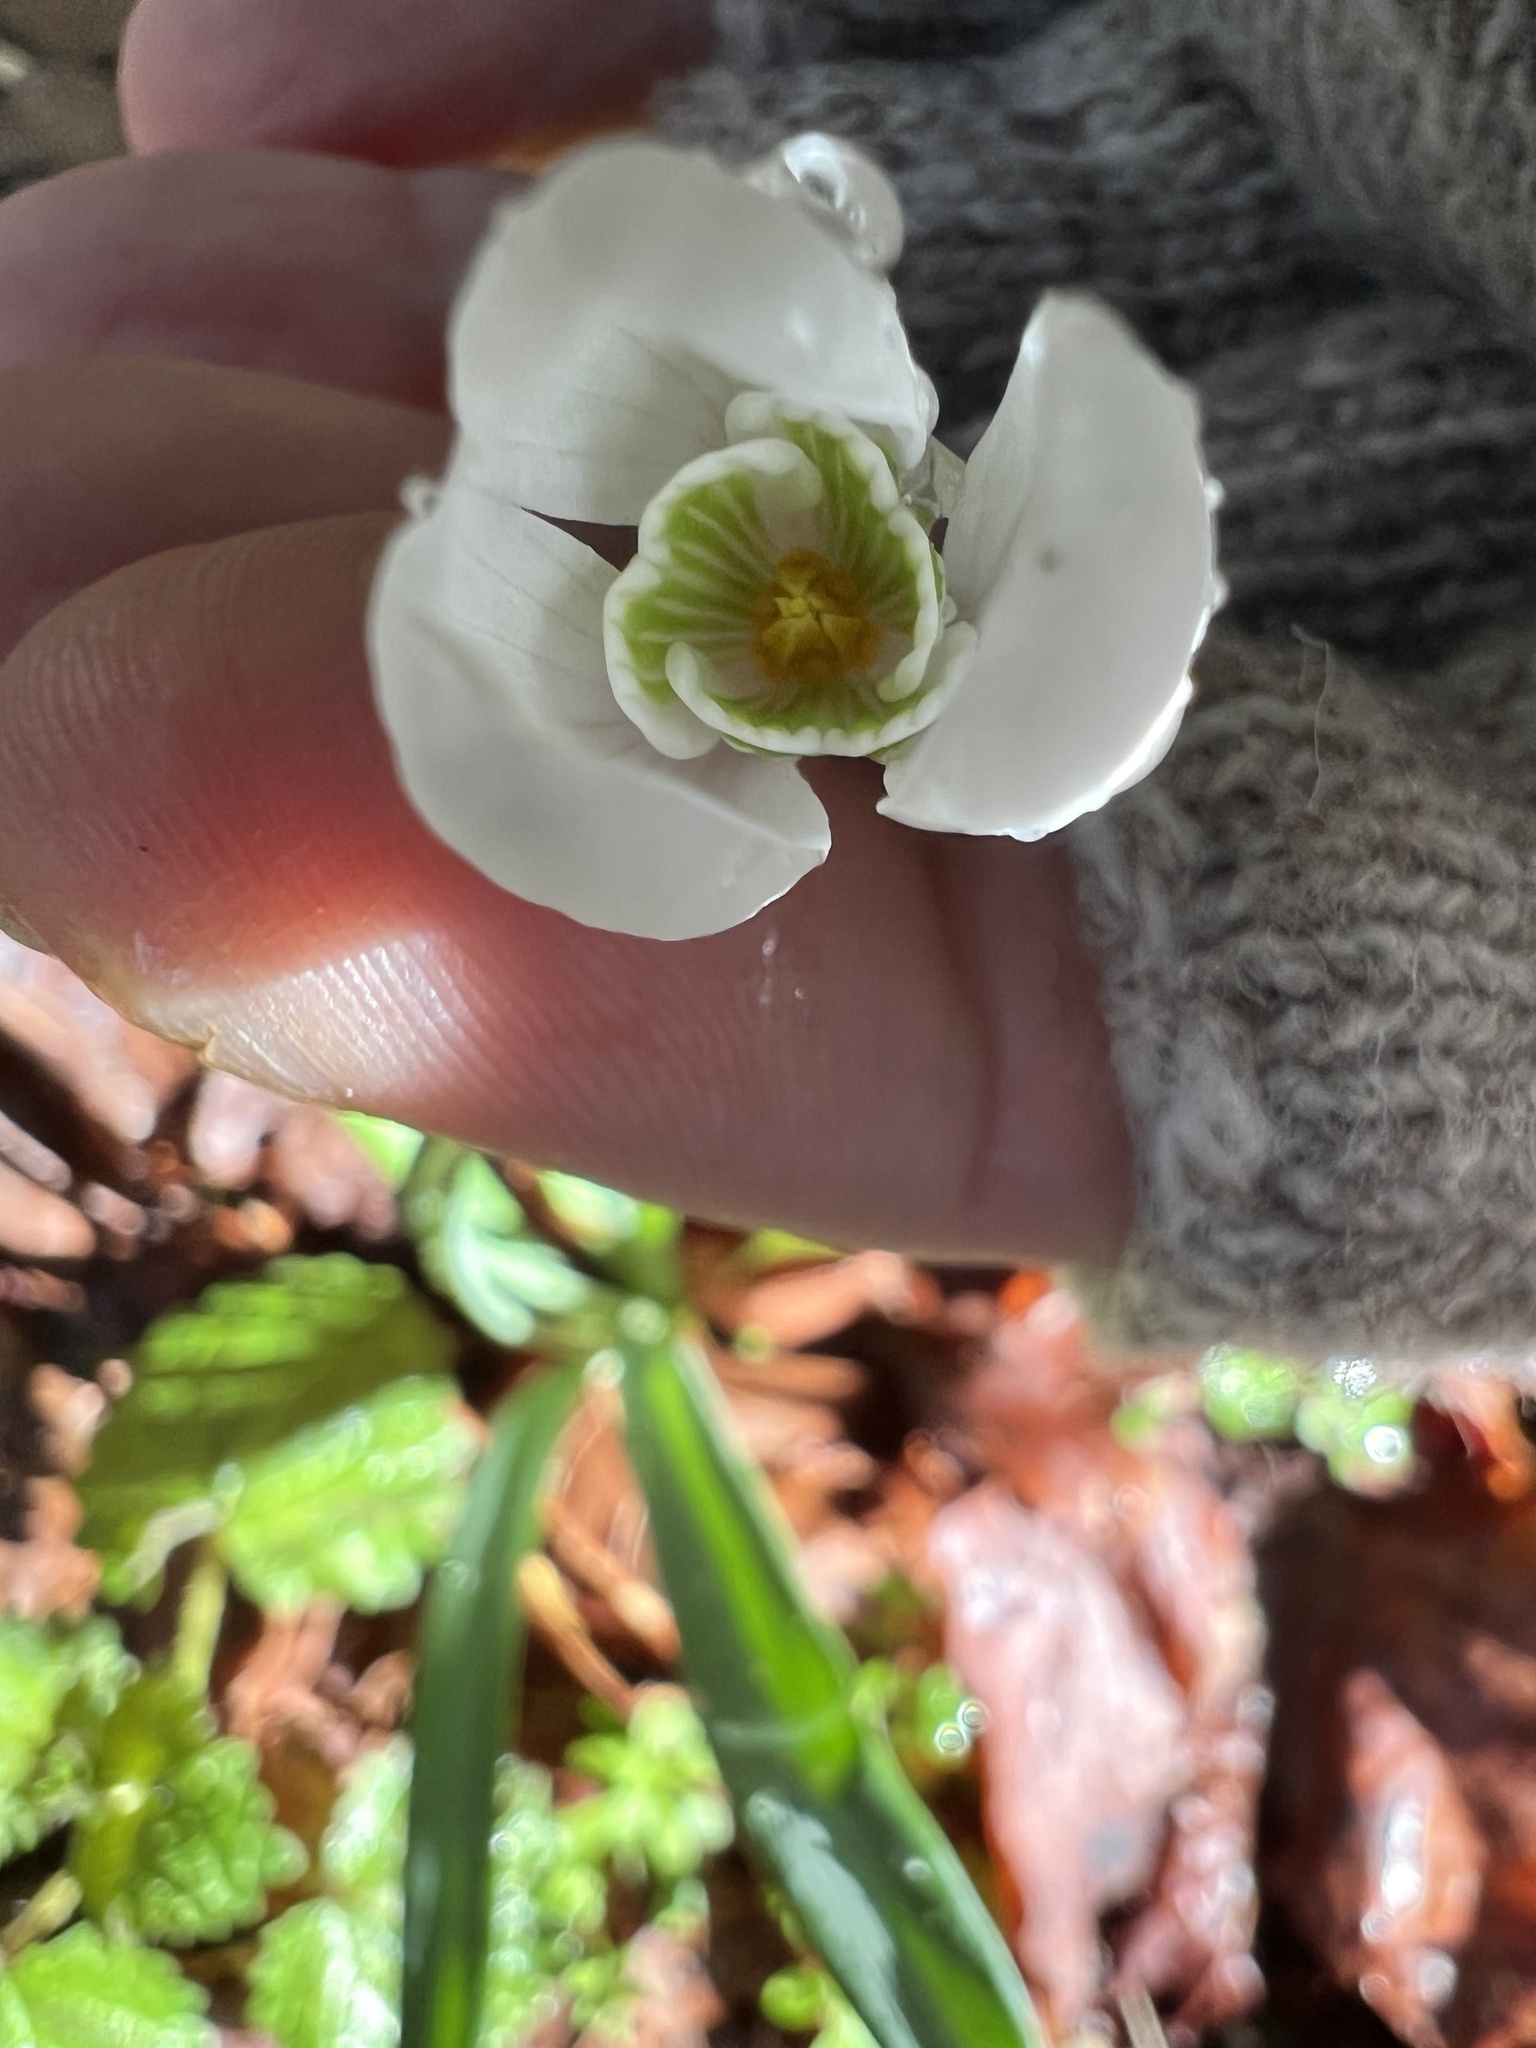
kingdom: Plantae
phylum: Tracheophyta
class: Liliopsida
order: Asparagales
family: Amaryllidaceae
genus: Galanthus
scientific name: Galanthus nivalis
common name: Snowdrop
